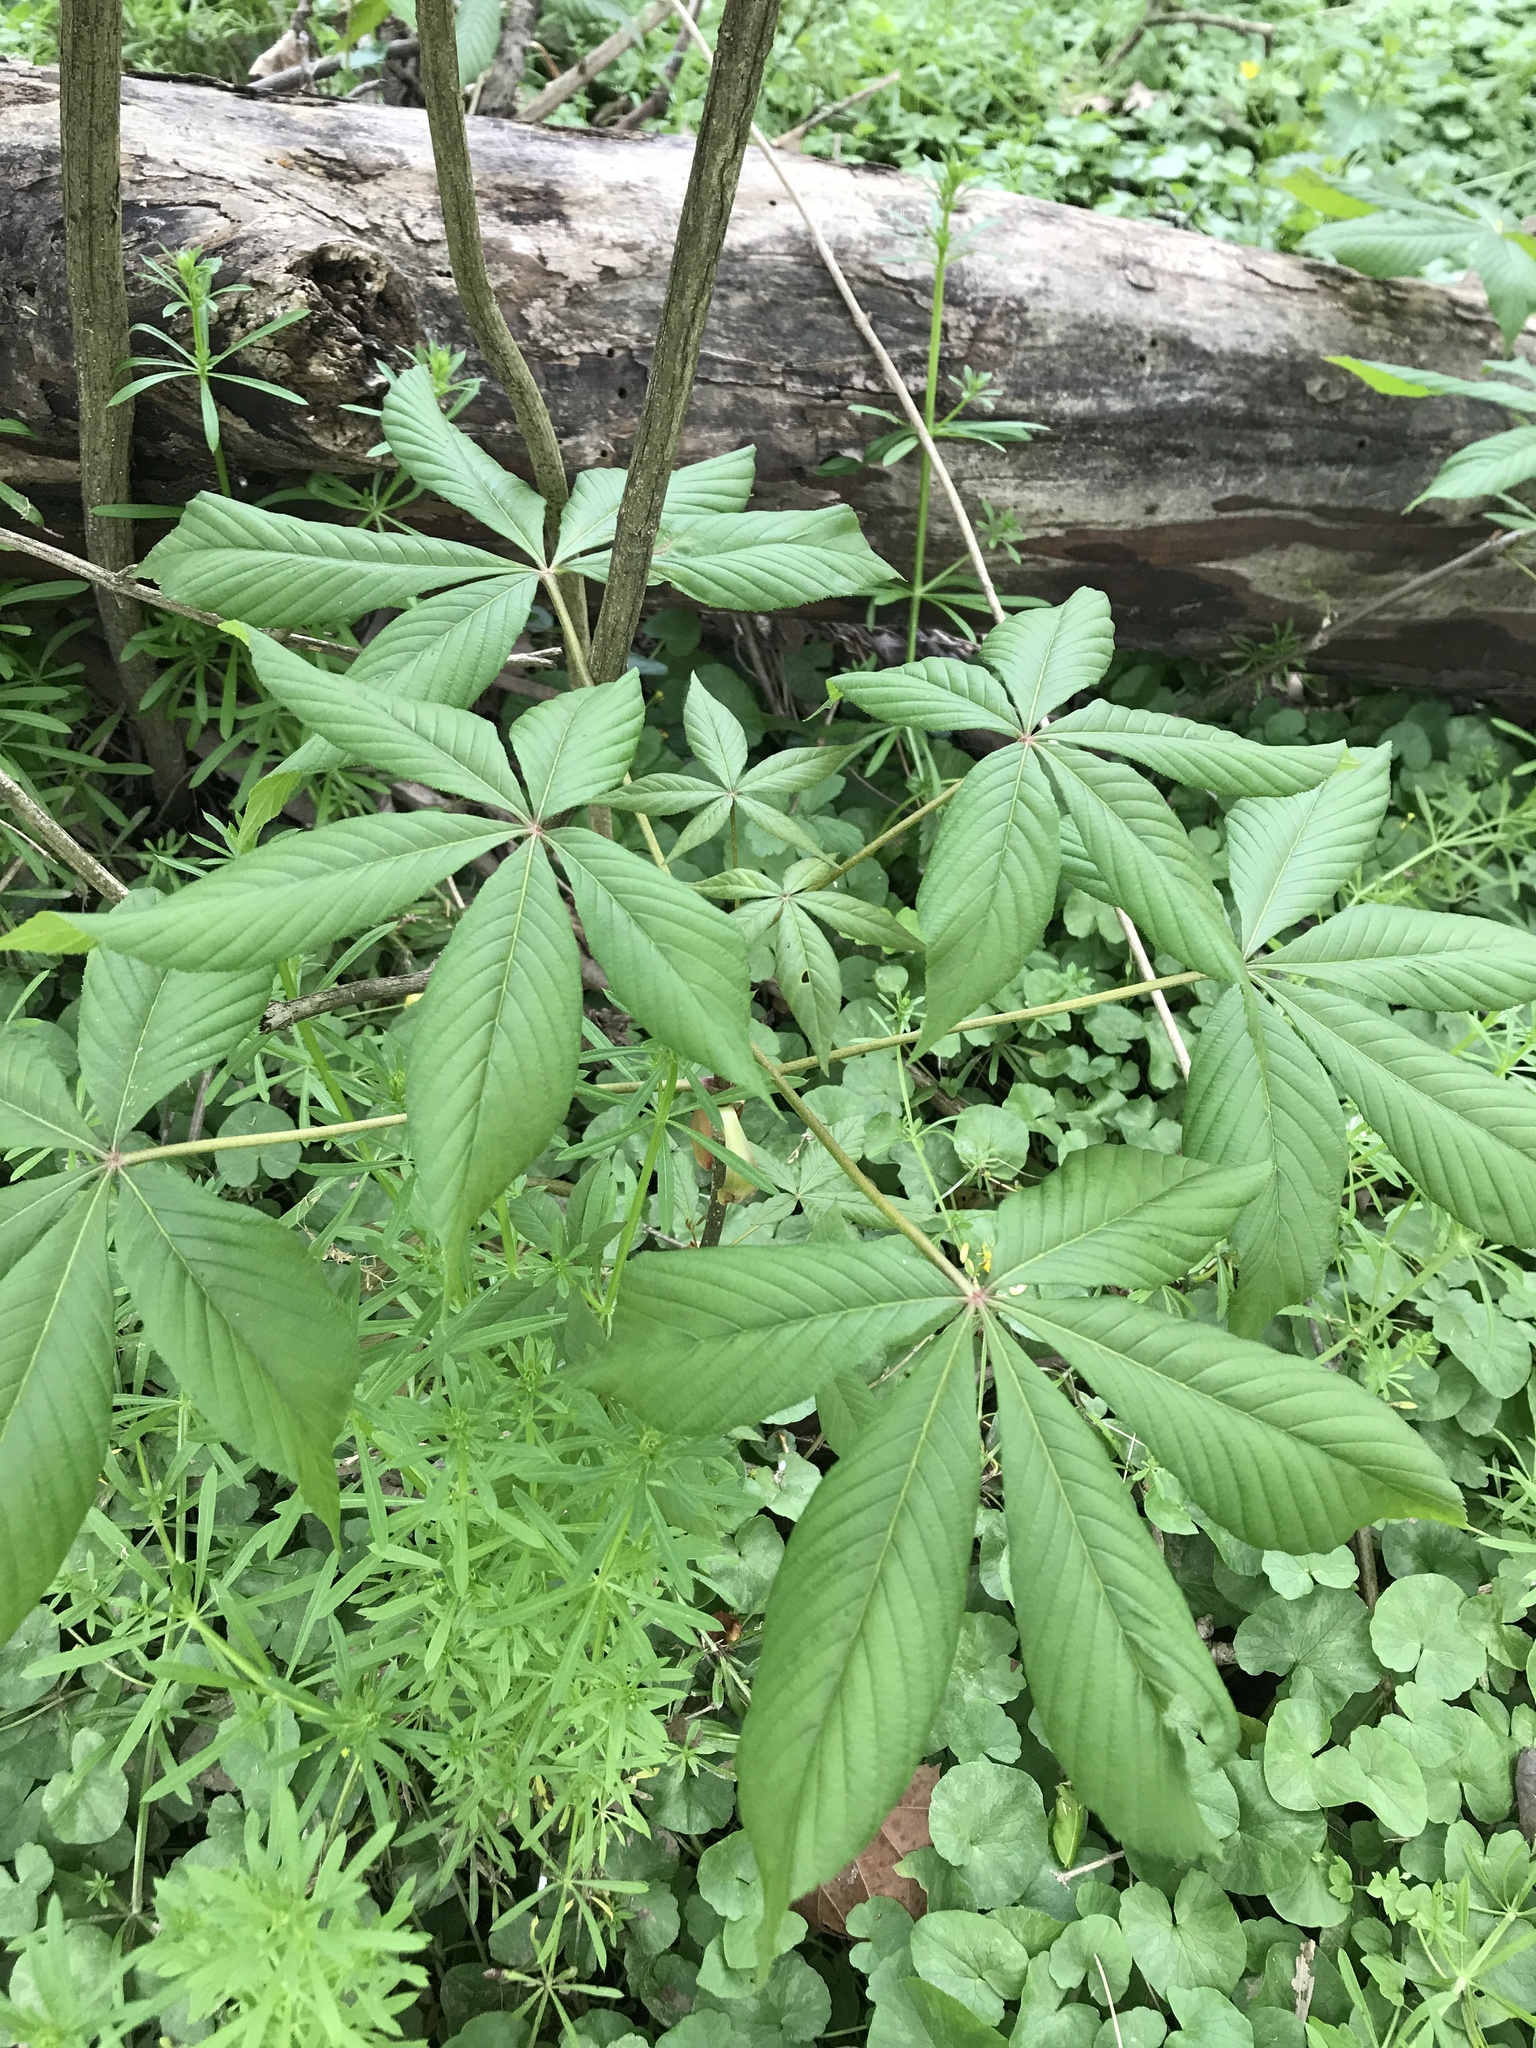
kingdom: Plantae
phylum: Tracheophyta
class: Magnoliopsida
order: Sapindales
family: Sapindaceae
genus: Aesculus
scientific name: Aesculus glabra
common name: Ohio buckeye
